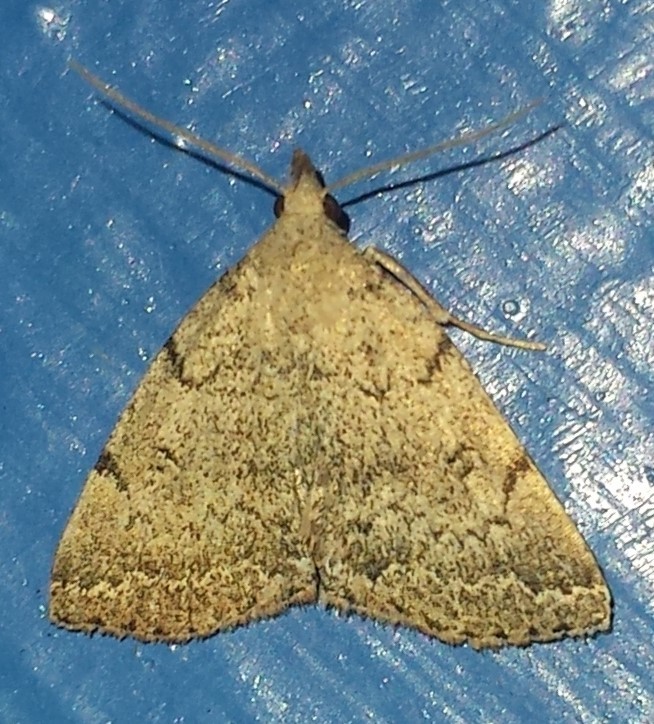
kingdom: Animalia
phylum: Arthropoda
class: Insecta
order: Lepidoptera
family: Erebidae
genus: Zanclognatha
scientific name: Zanclognatha theralis
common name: Flagged fan-foot
